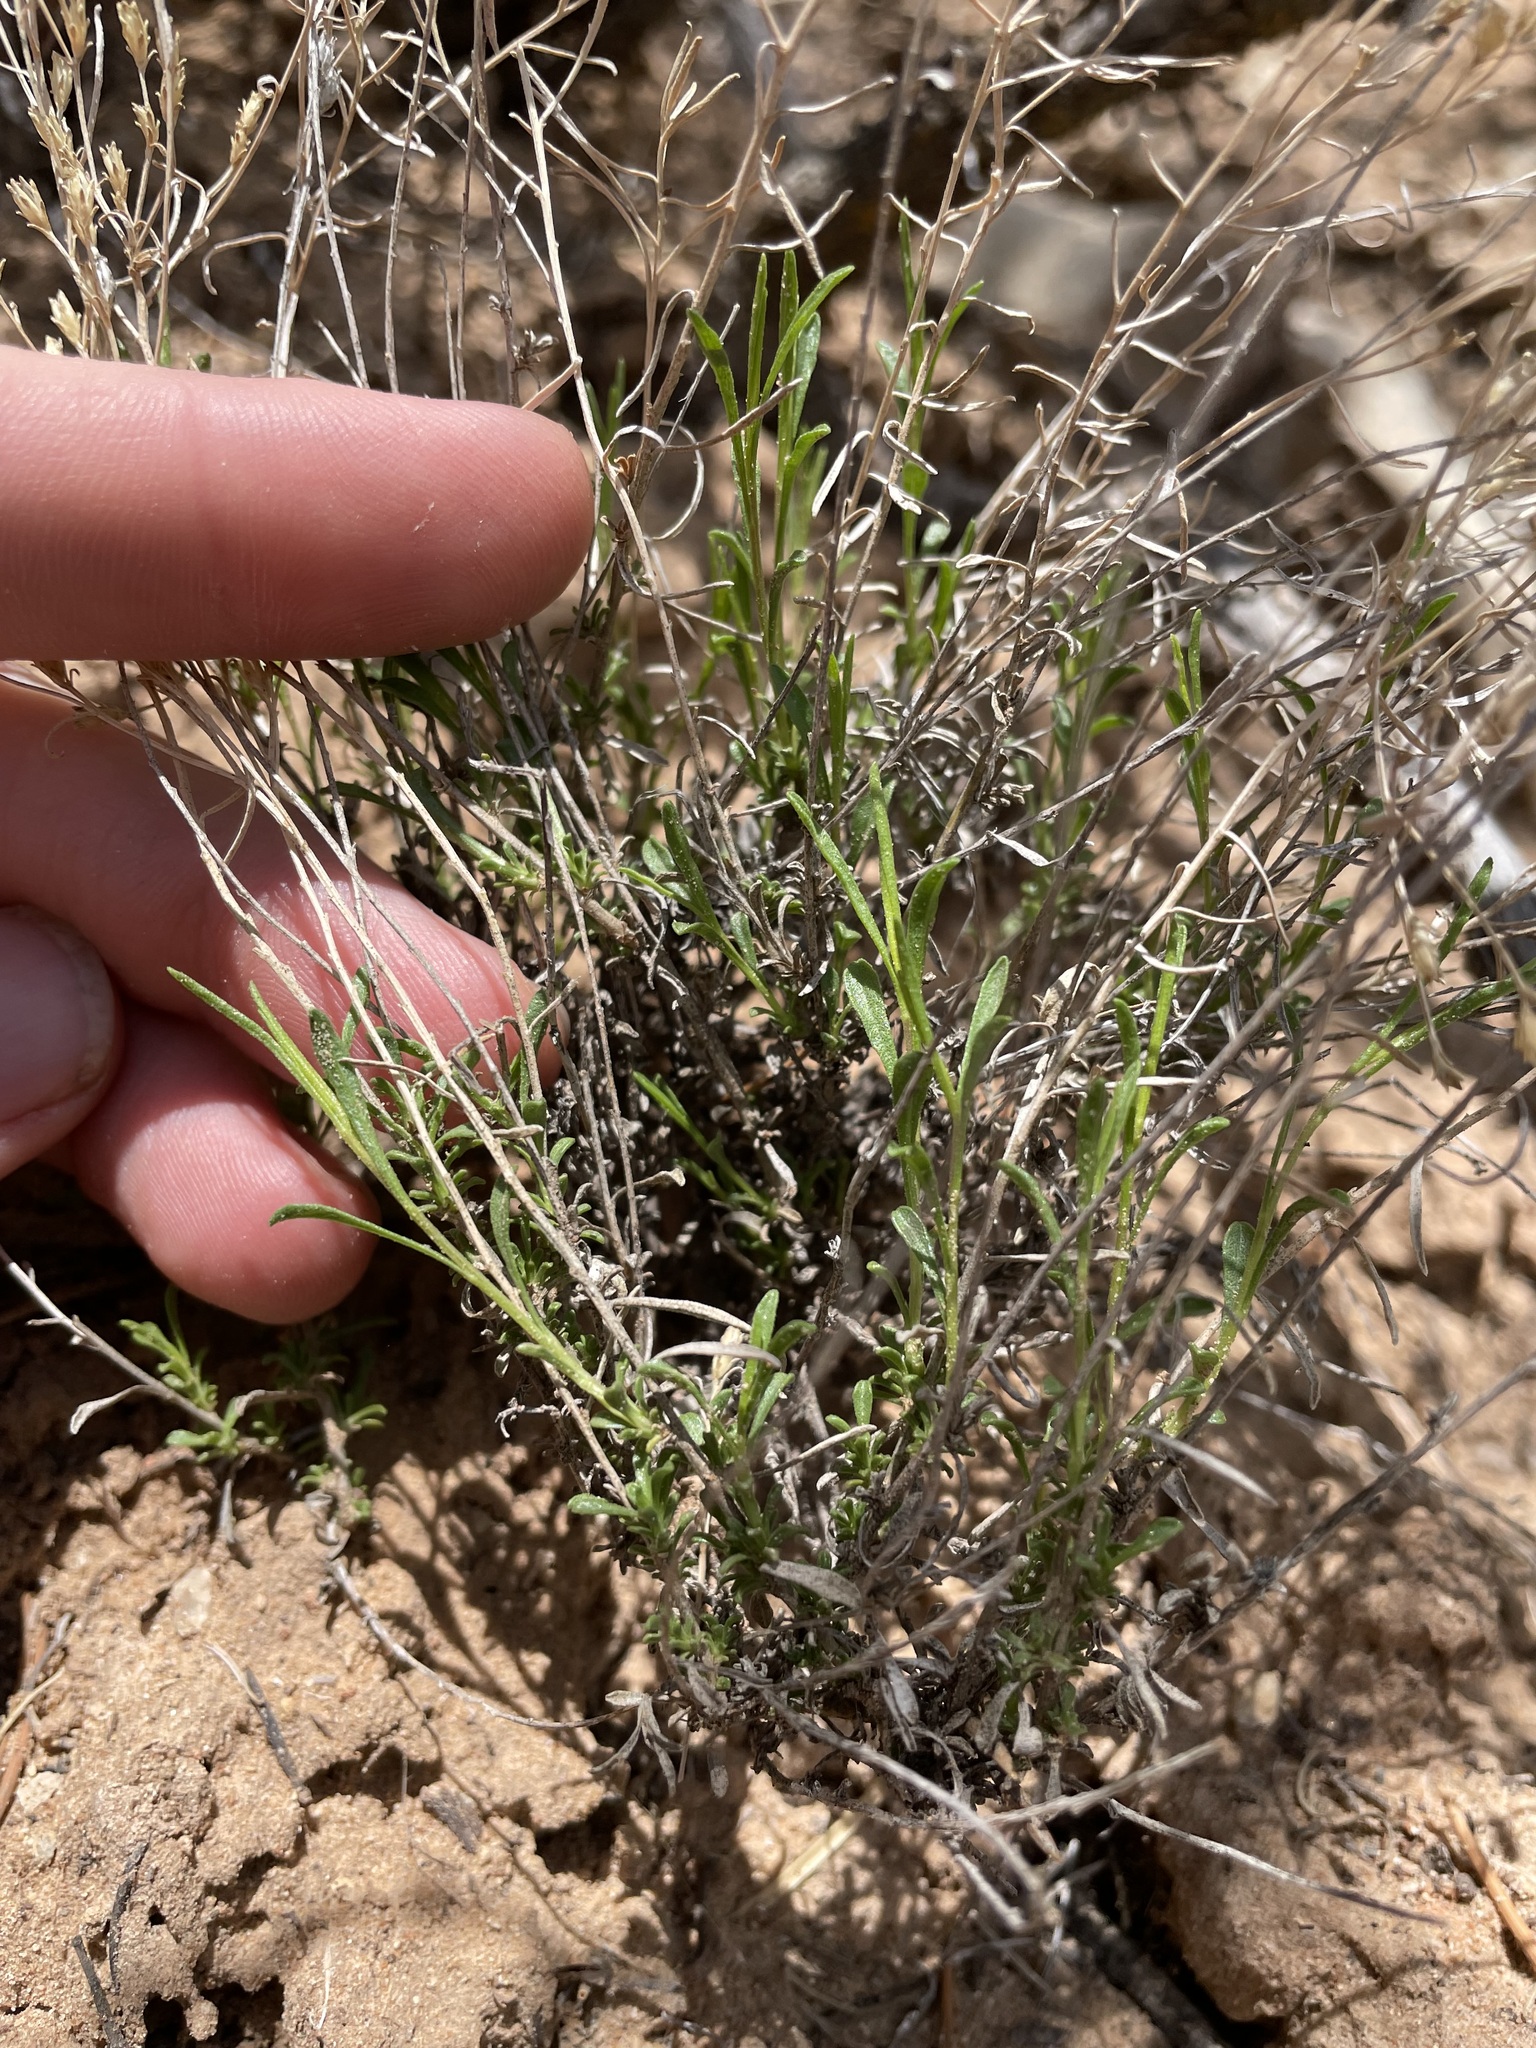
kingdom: Plantae
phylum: Tracheophyta
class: Magnoliopsida
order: Asterales
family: Asteraceae
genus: Gutierrezia
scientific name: Gutierrezia sarothrae
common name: Broom snakeweed
